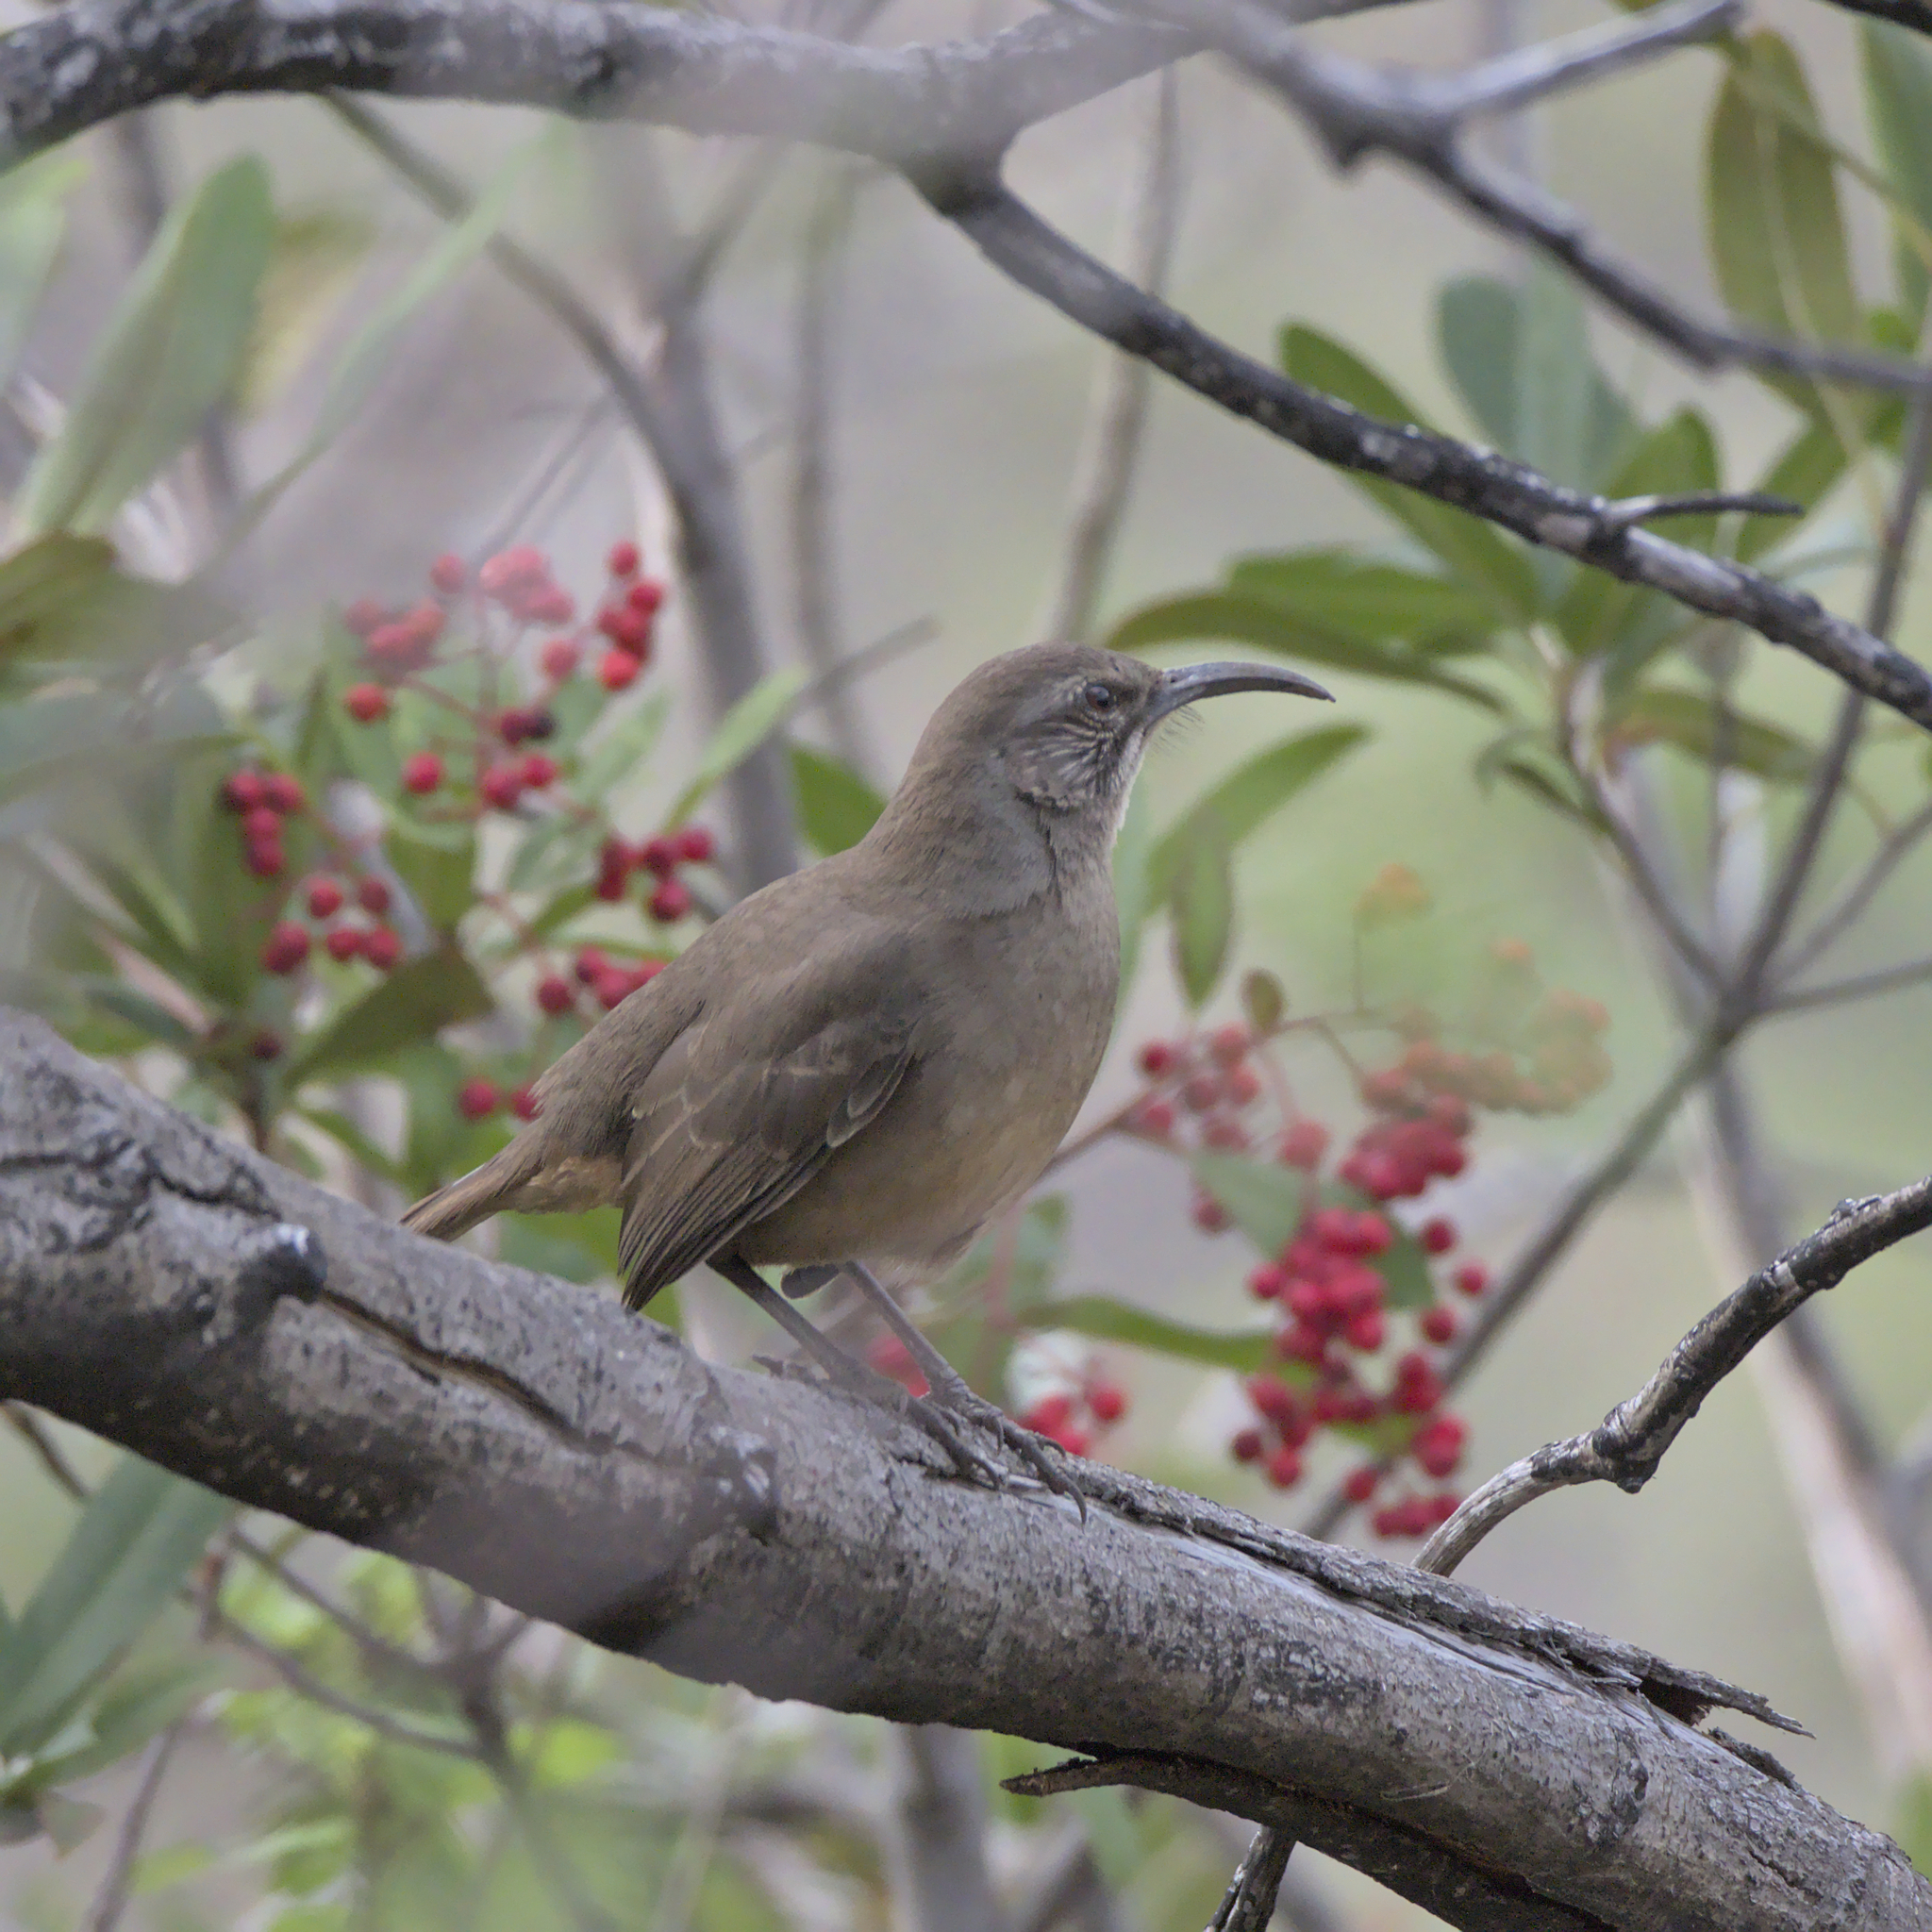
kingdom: Animalia
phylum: Chordata
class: Aves
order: Passeriformes
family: Mimidae
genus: Toxostoma
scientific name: Toxostoma redivivum
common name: California thrasher
